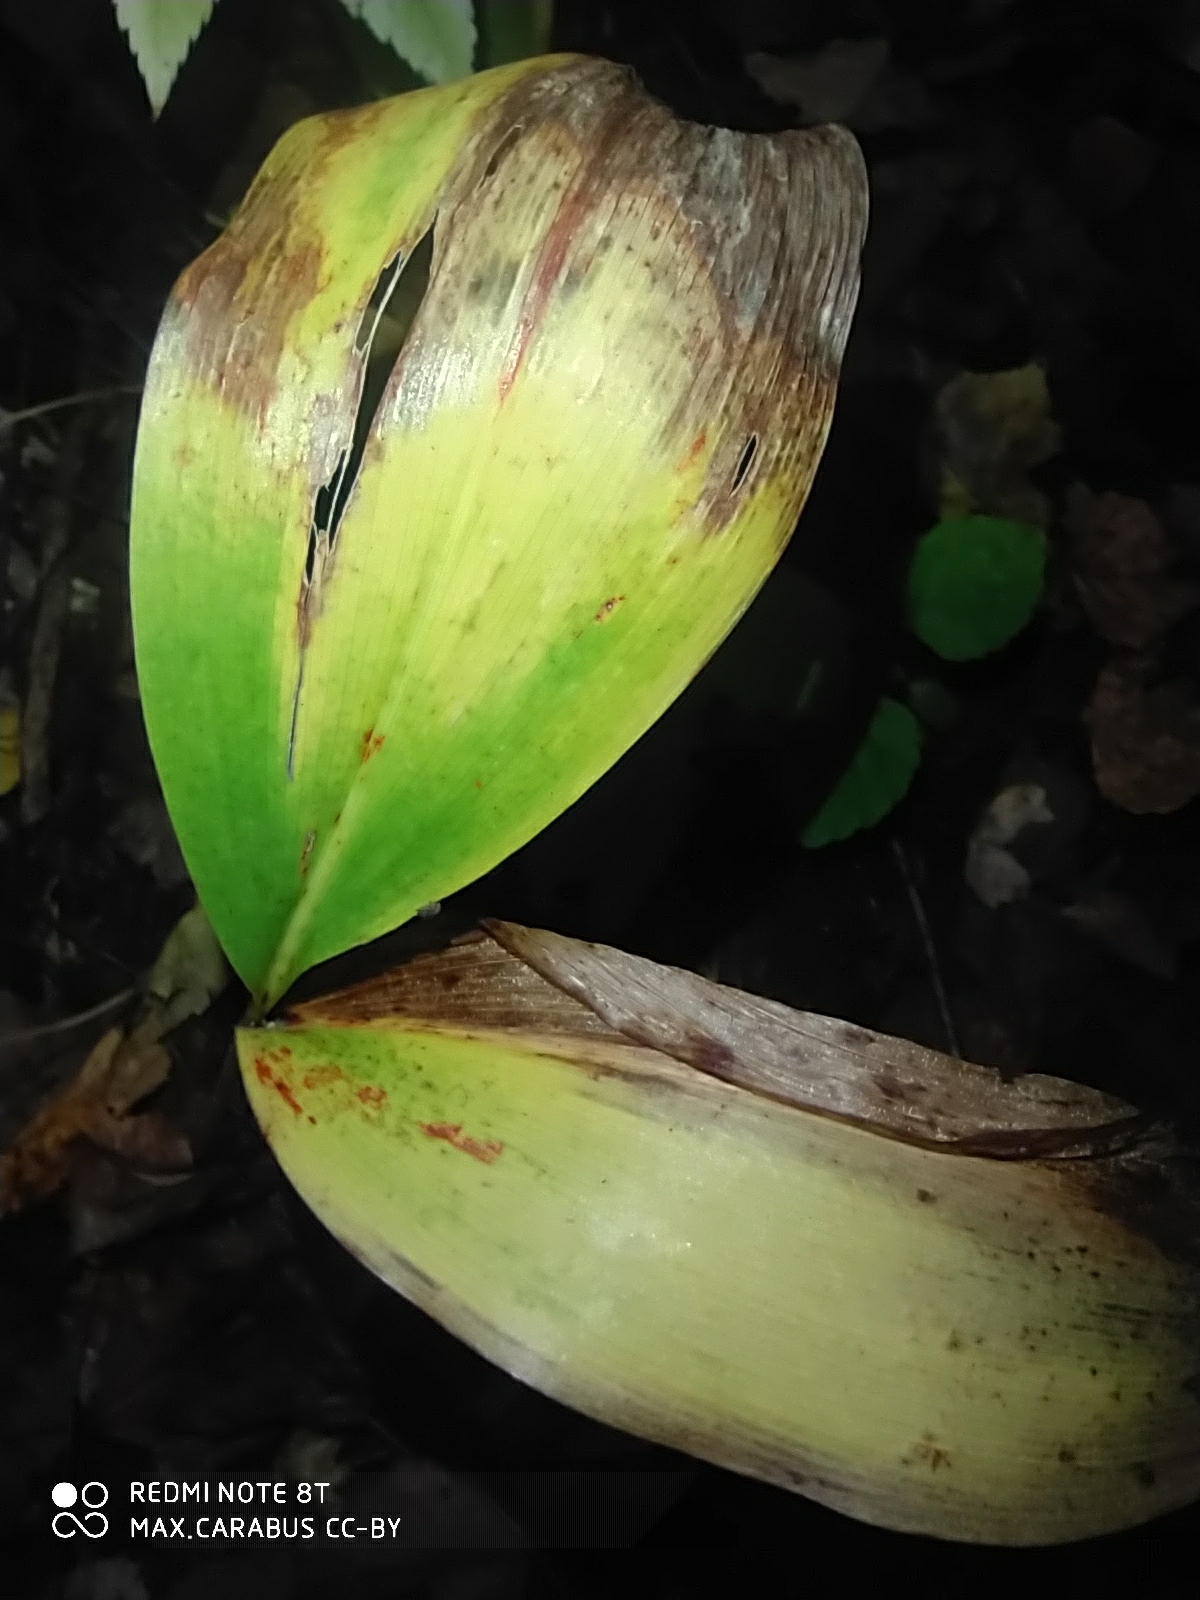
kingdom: Plantae
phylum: Tracheophyta
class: Liliopsida
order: Asparagales
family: Asparagaceae
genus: Convallaria
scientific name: Convallaria majalis
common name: Lily-of-the-valley
